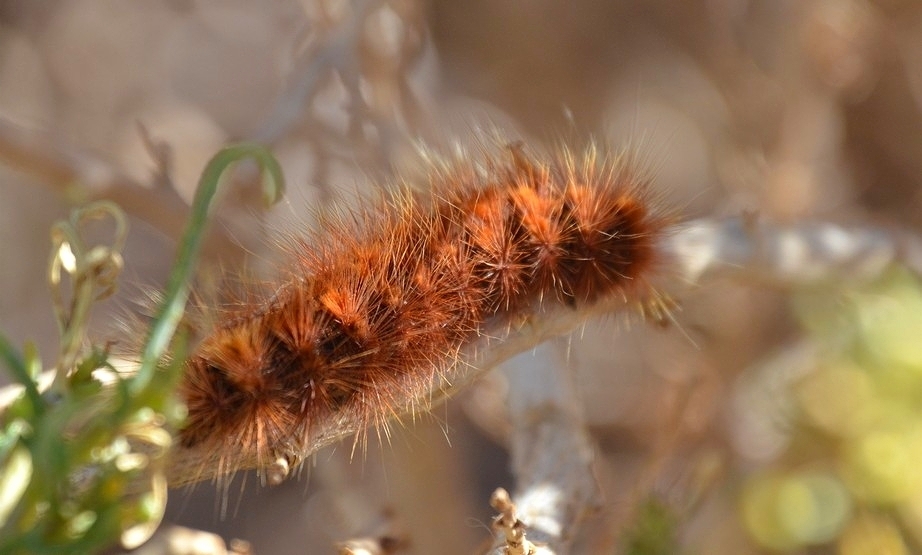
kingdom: Animalia
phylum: Arthropoda
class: Insecta
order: Lepidoptera
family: Erebidae
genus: Paracles
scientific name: Paracles severa
